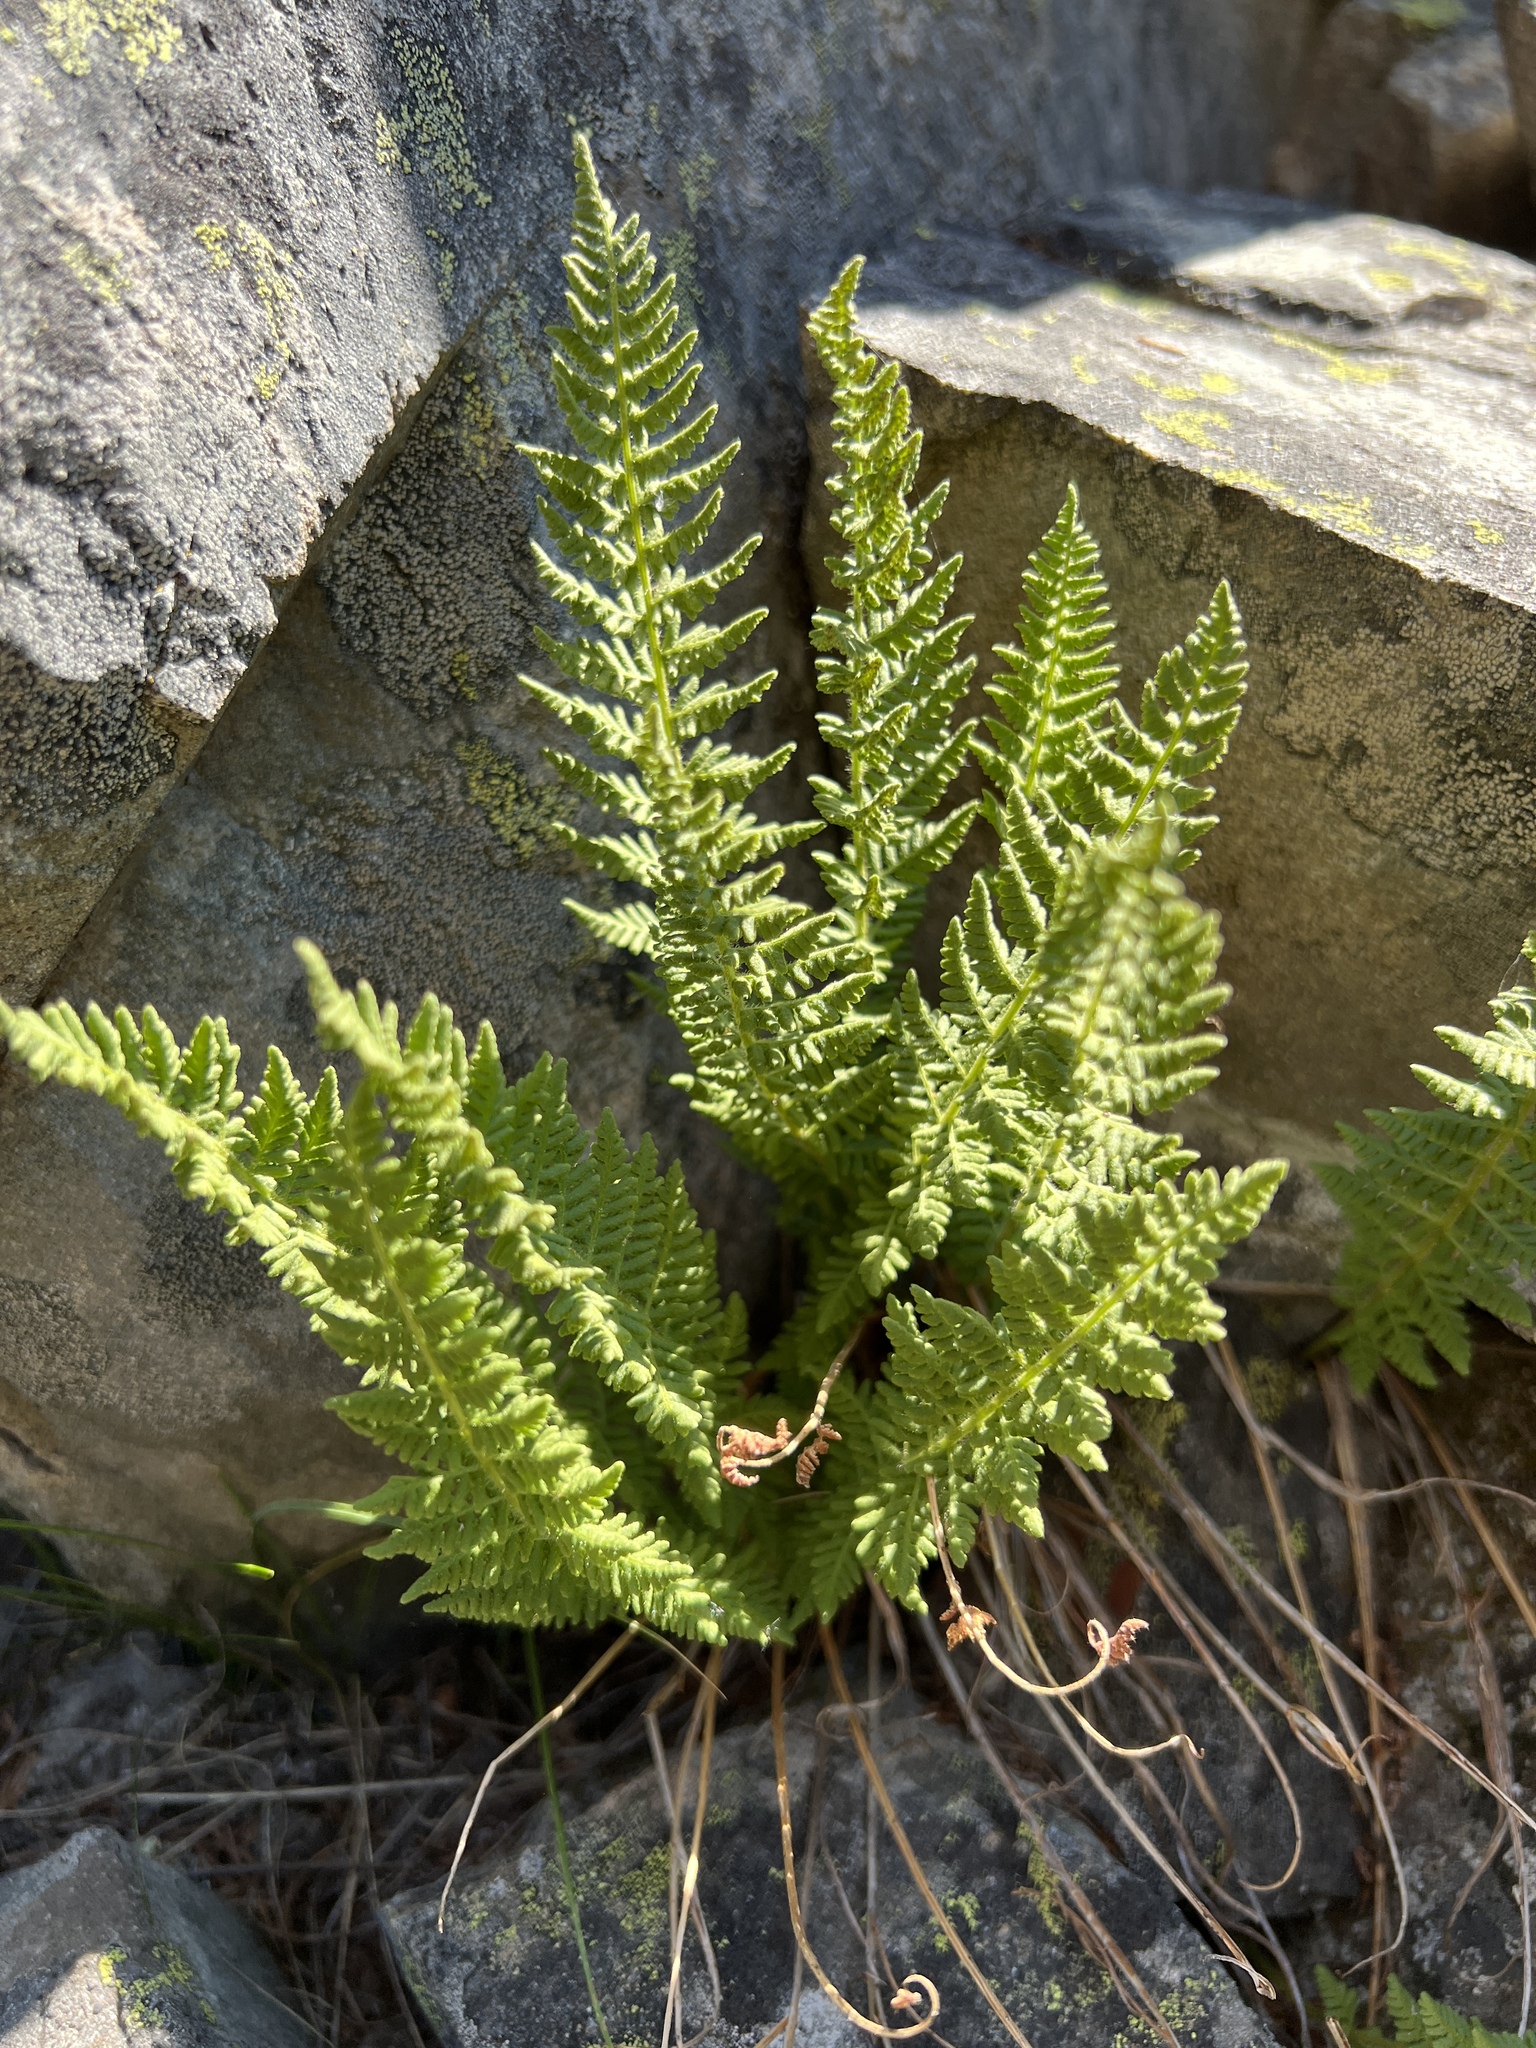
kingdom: Plantae
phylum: Tracheophyta
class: Polypodiopsida
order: Polypodiales
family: Woodsiaceae
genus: Physematium
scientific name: Physematium scopulinum
